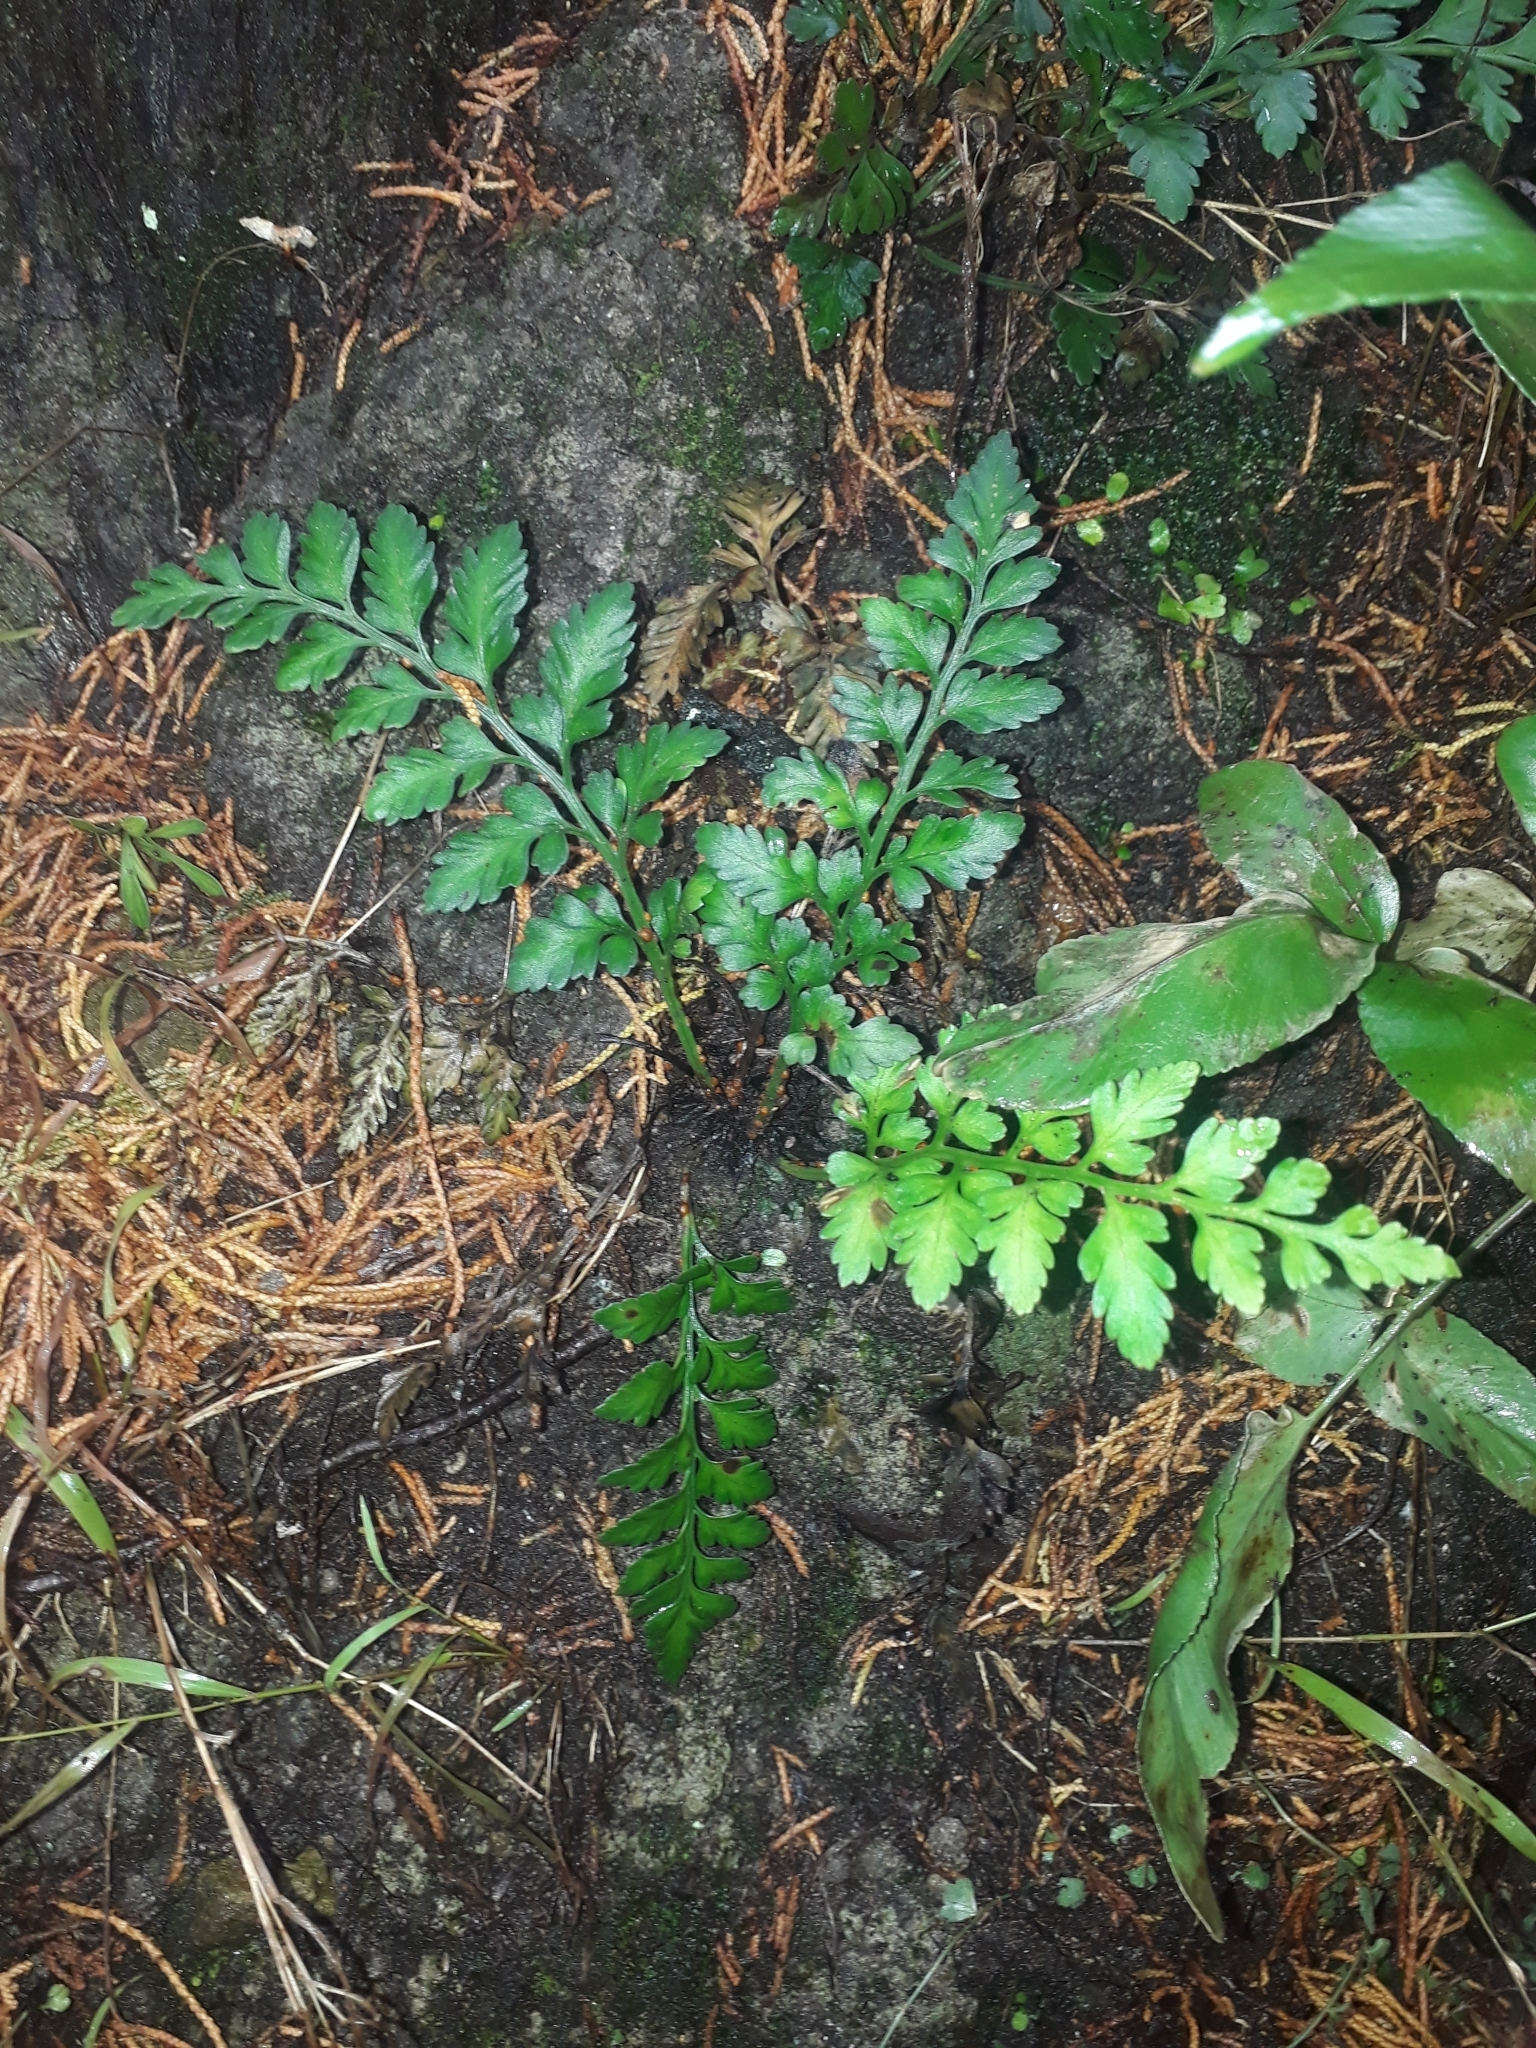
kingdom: Plantae
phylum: Tracheophyta
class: Polypodiopsida
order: Polypodiales
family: Aspleniaceae
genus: Asplenium
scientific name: Asplenium appendiculatum
